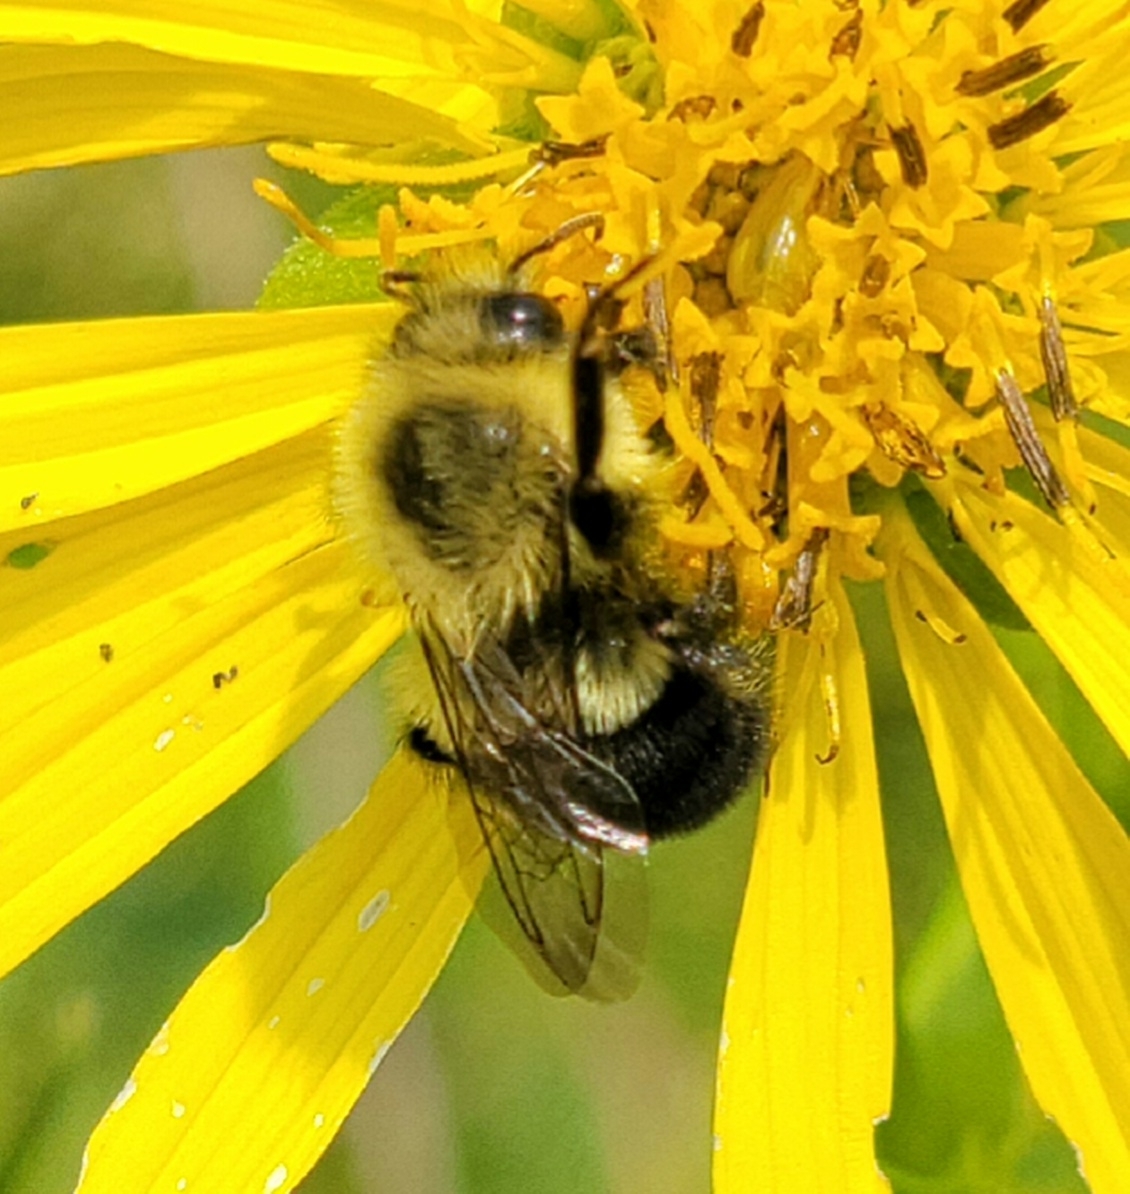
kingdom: Animalia
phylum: Arthropoda
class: Insecta
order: Hymenoptera
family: Apidae
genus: Bombus
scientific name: Bombus impatiens
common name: Common eastern bumble bee
